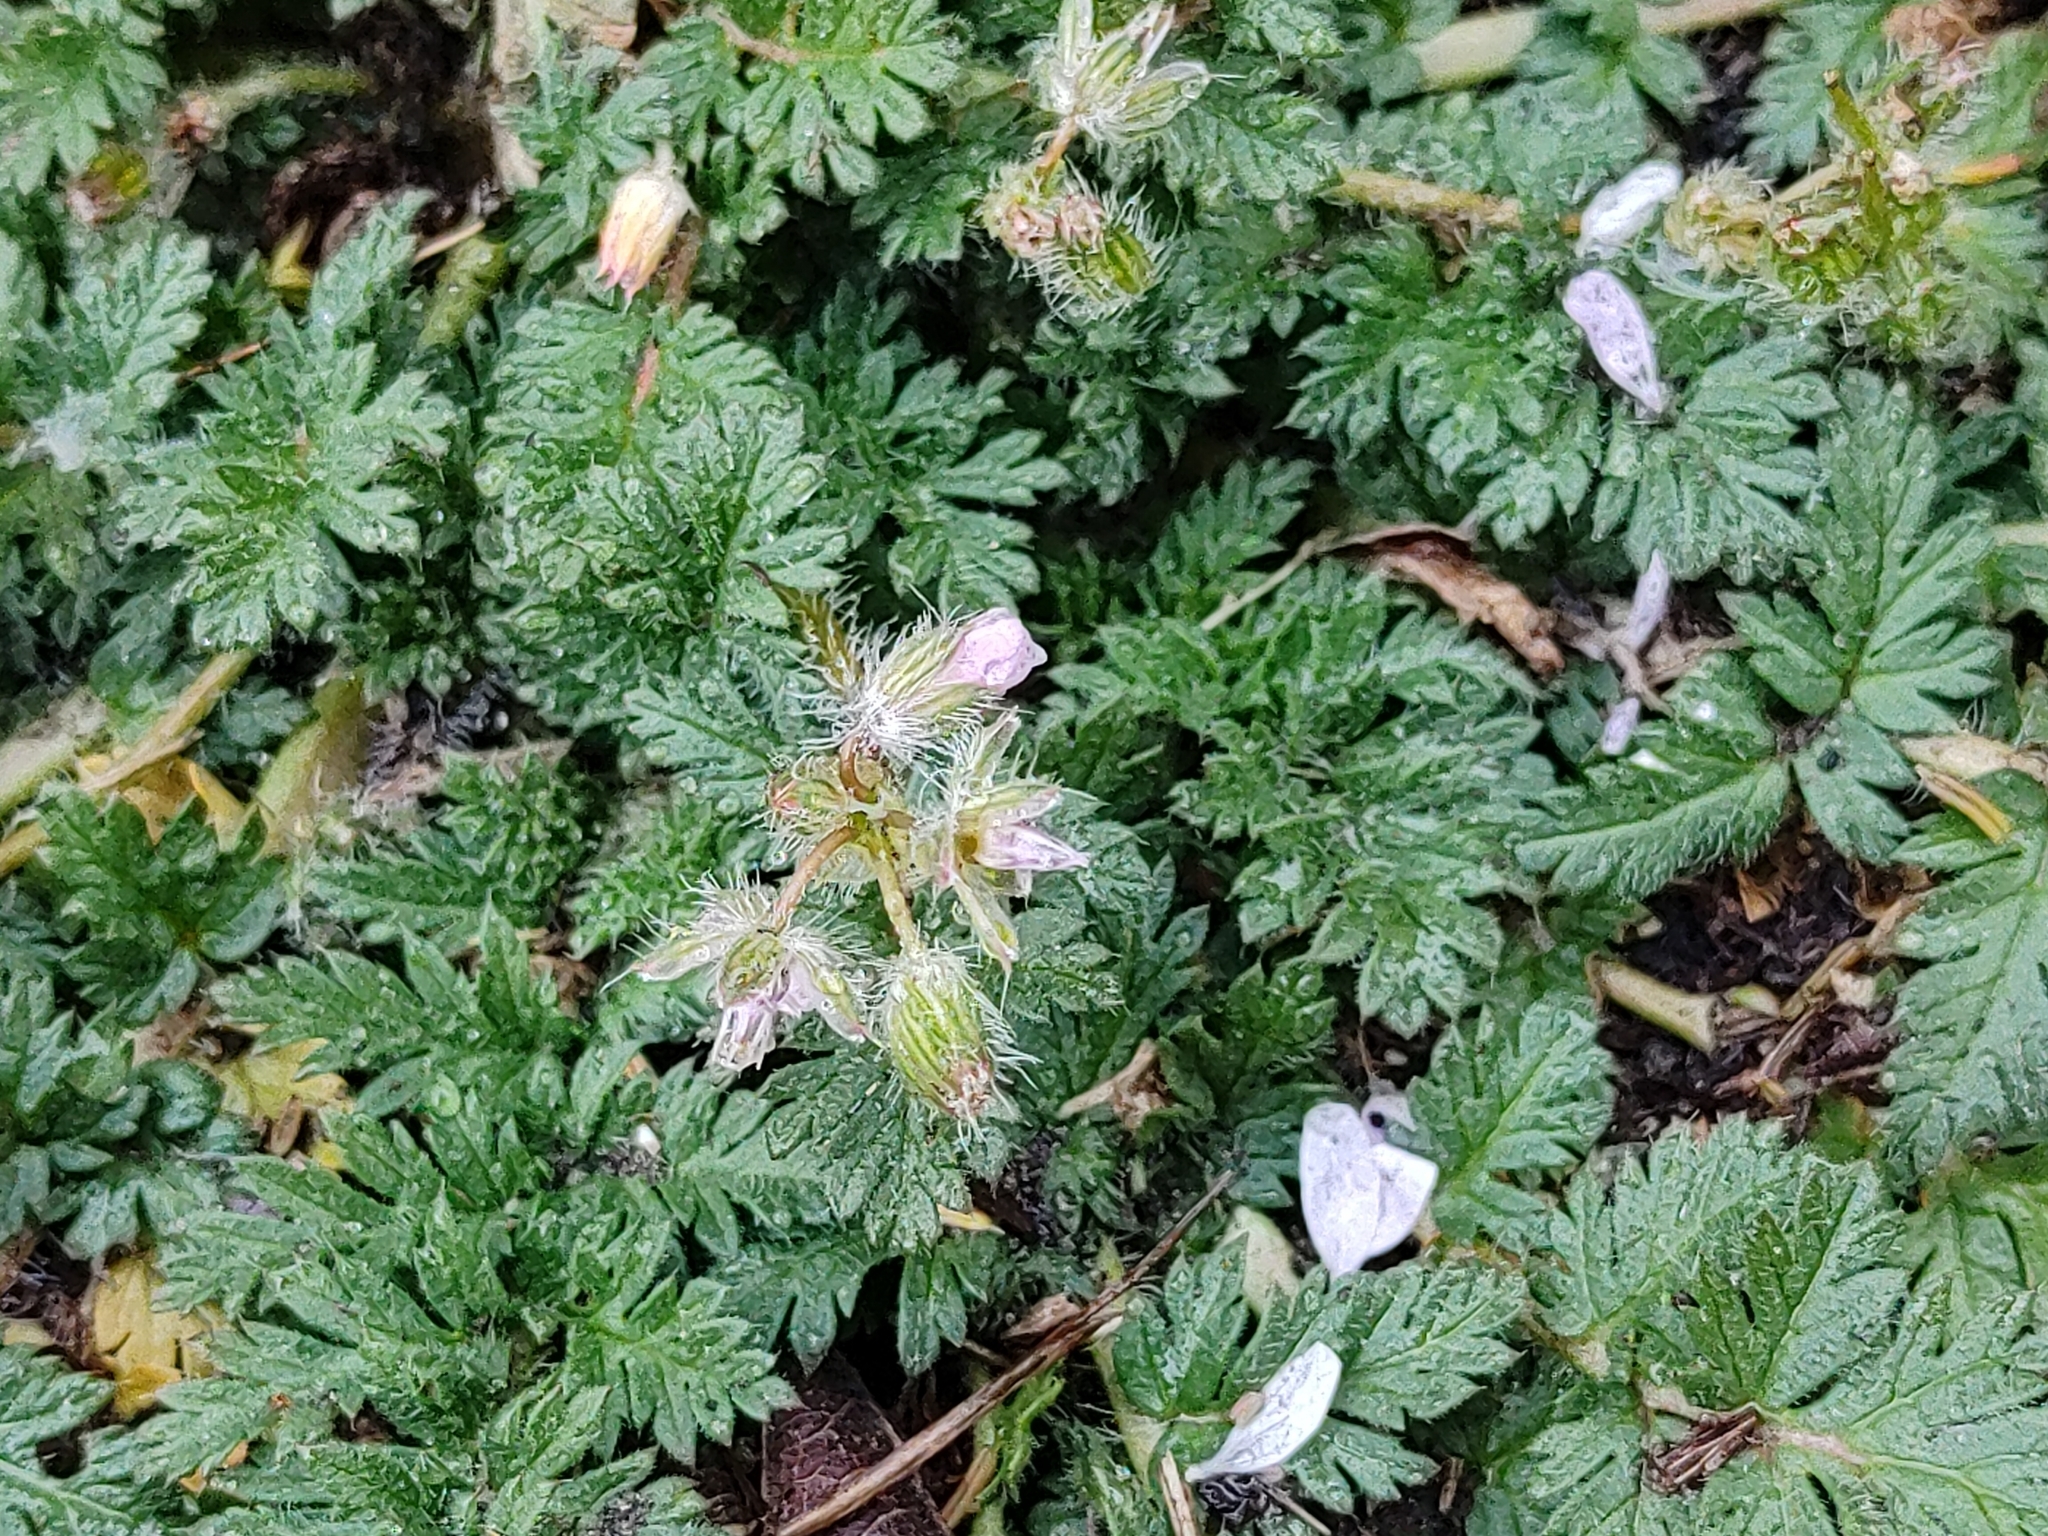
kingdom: Plantae
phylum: Tracheophyta
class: Magnoliopsida
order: Geraniales
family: Geraniaceae
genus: Erodium
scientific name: Erodium cicutarium
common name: Common stork's-bill
